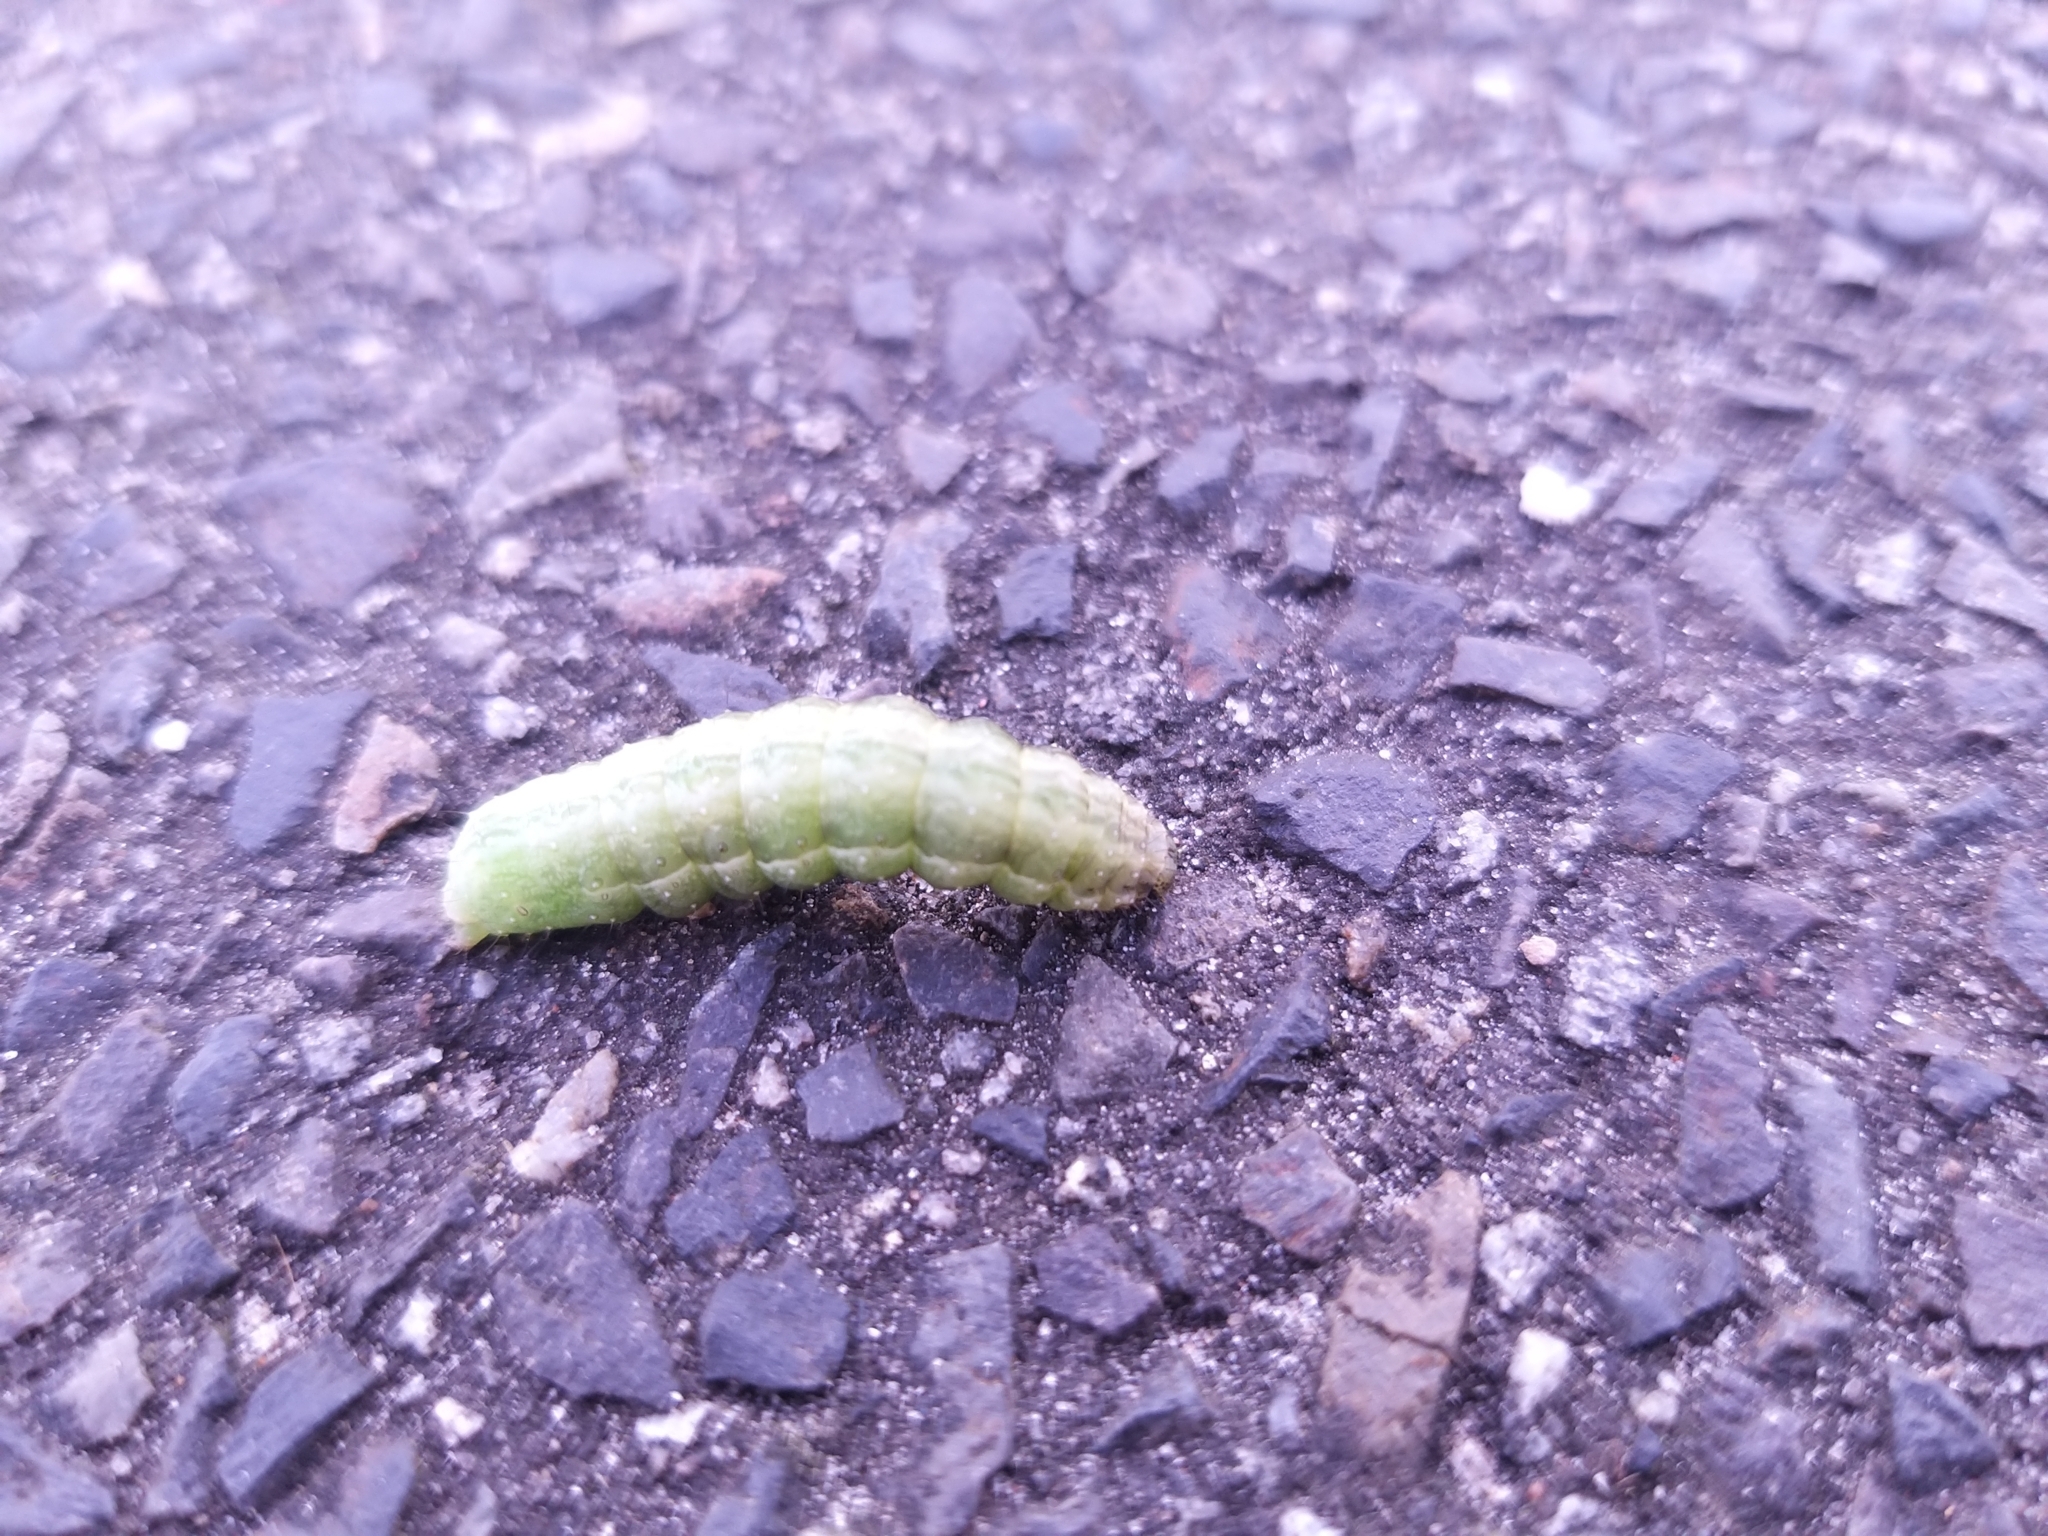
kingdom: Animalia
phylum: Arthropoda
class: Insecta
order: Lepidoptera
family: Noctuidae
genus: Phlogophora
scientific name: Phlogophora meticulosa
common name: Angle shades
